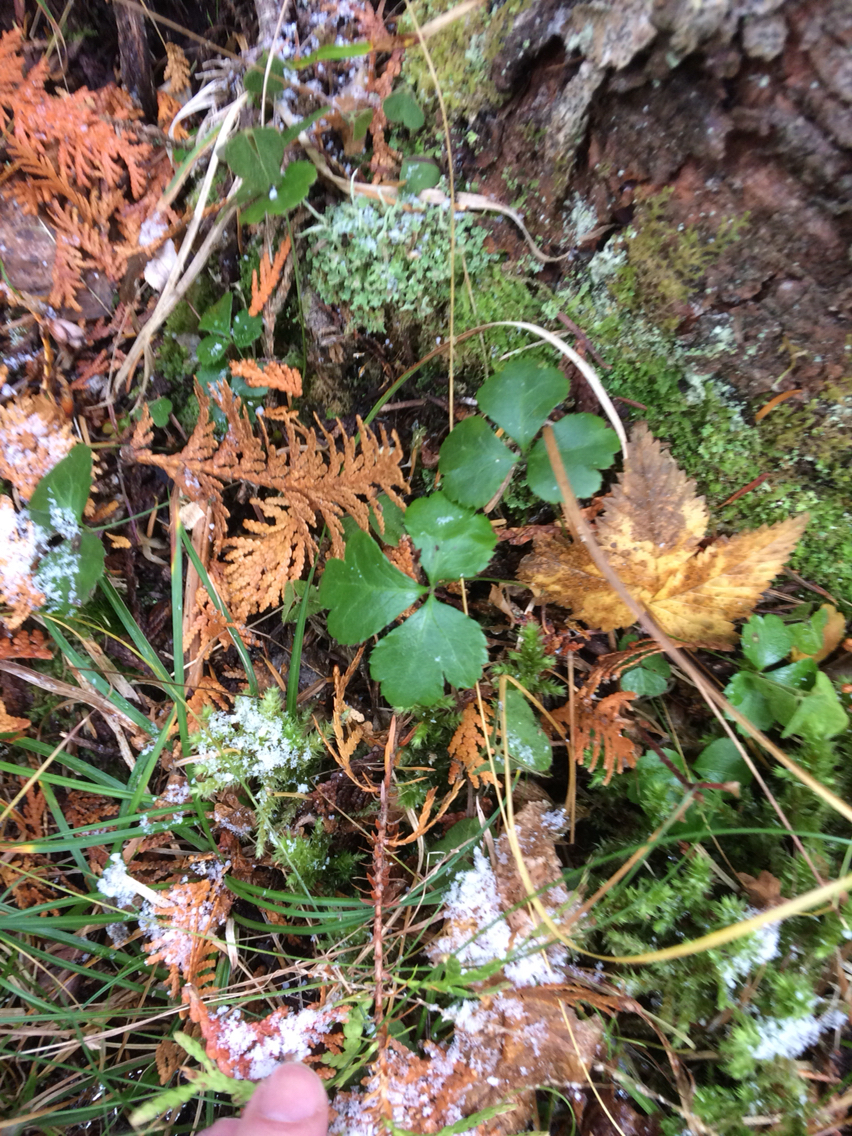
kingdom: Plantae
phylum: Tracheophyta
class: Magnoliopsida
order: Ranunculales
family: Ranunculaceae
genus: Coptis
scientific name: Coptis trifolia
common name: Canker-root
